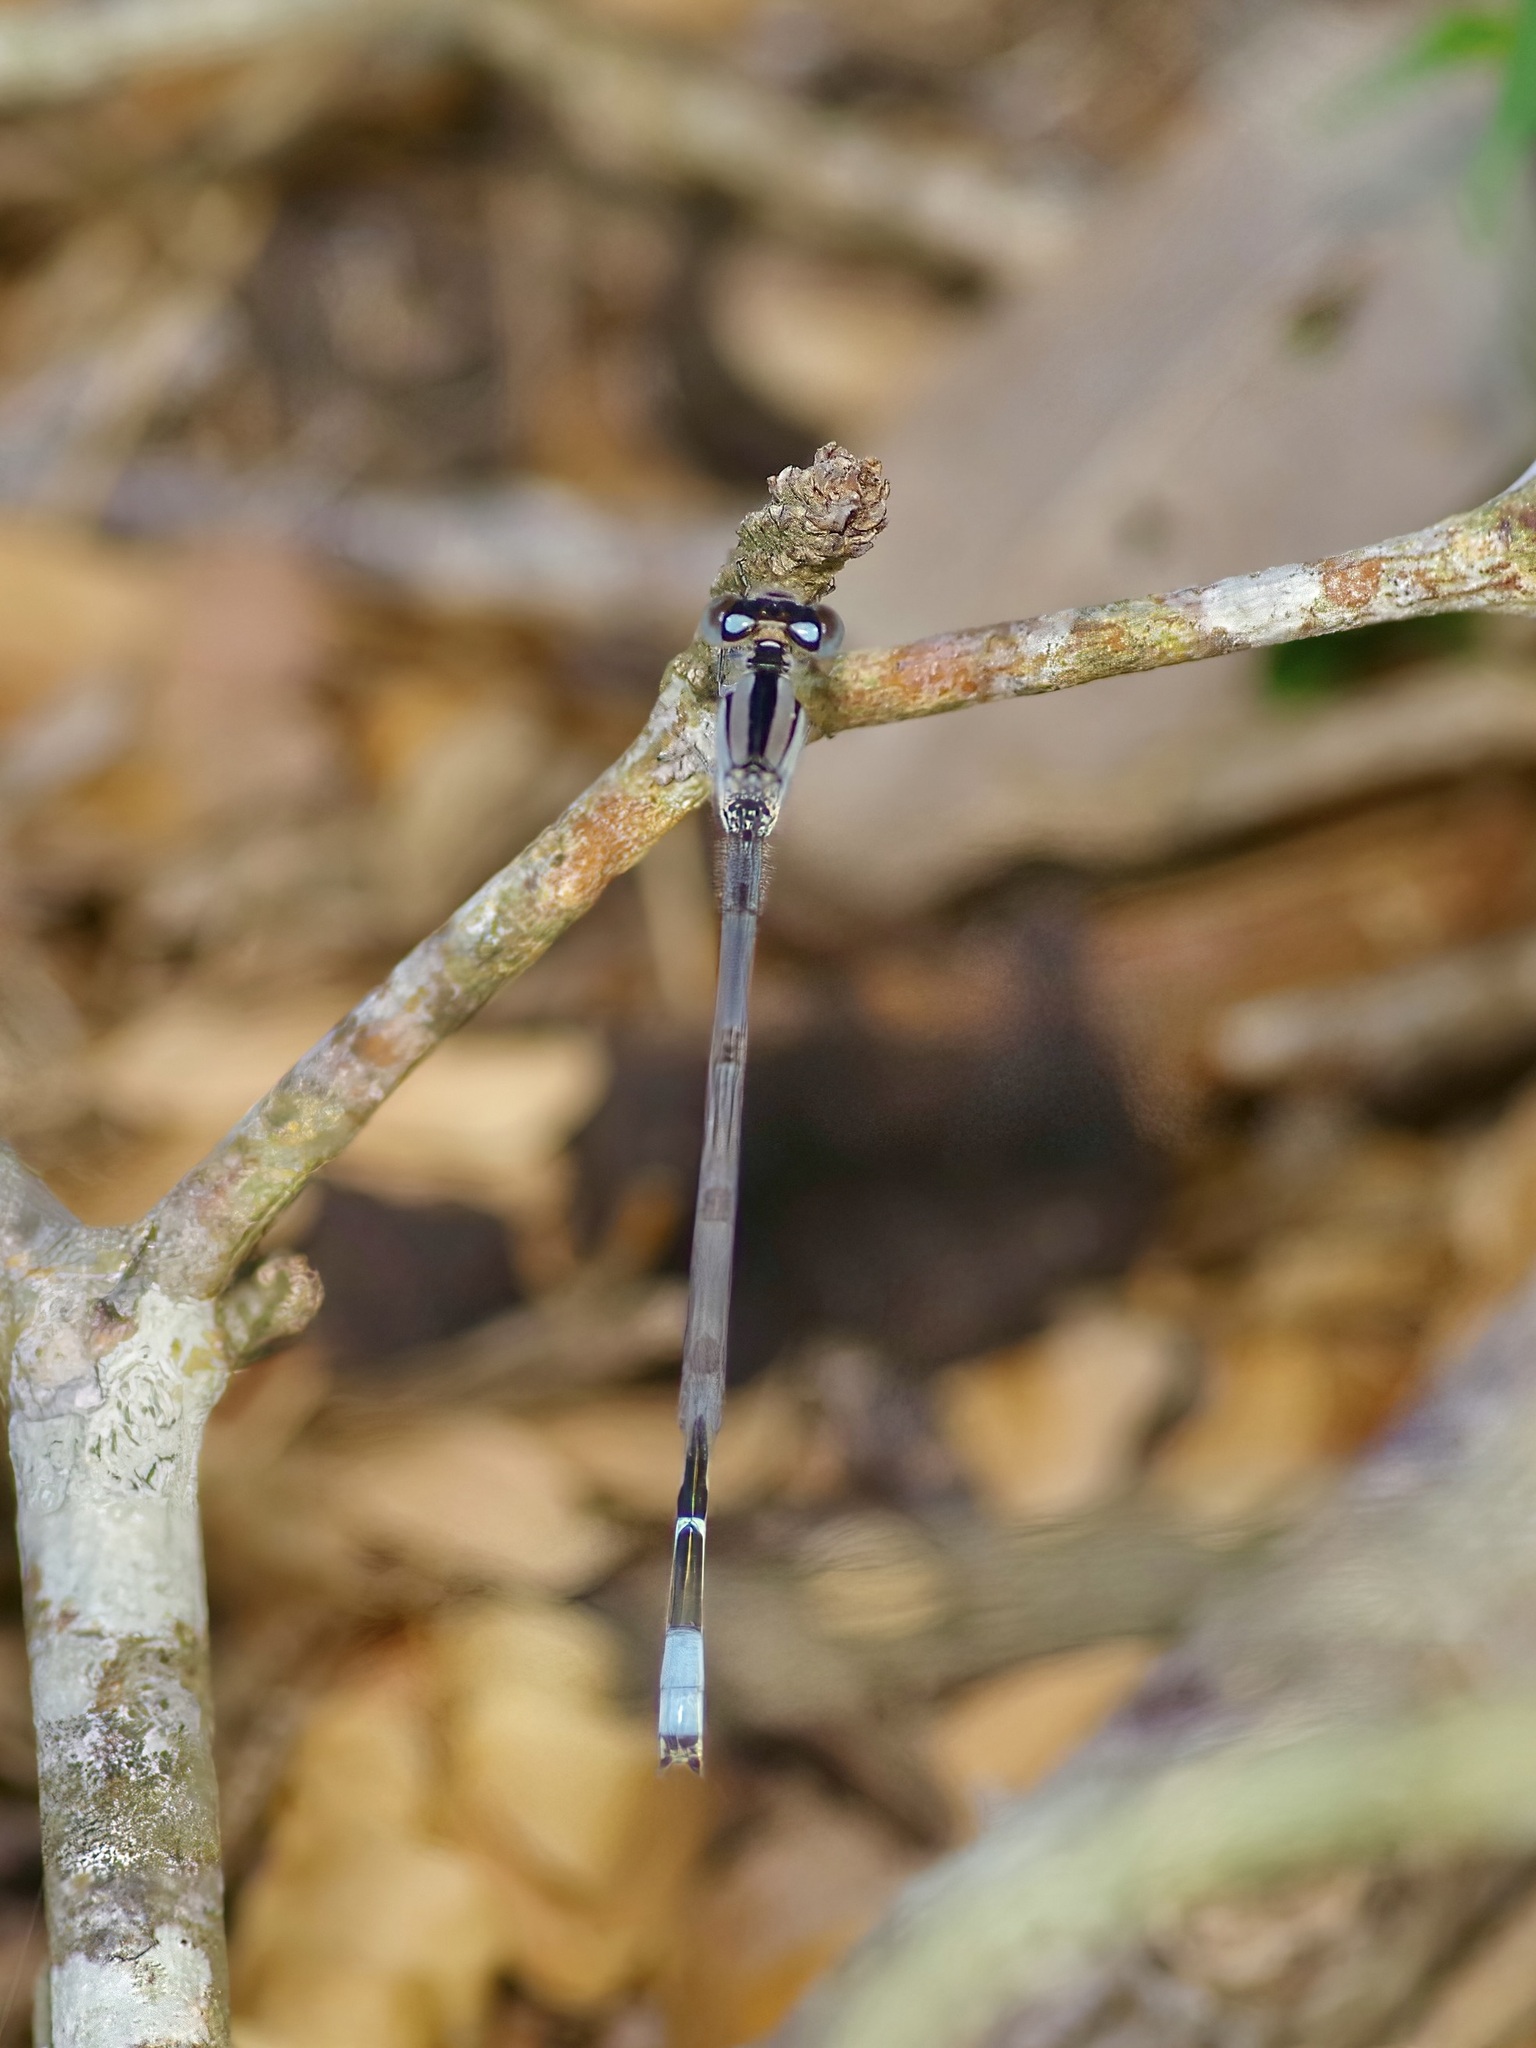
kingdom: Animalia
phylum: Arthropoda
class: Insecta
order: Odonata
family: Coenagrionidae
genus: Enallagma
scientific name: Enallagma civile
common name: Damselfly
